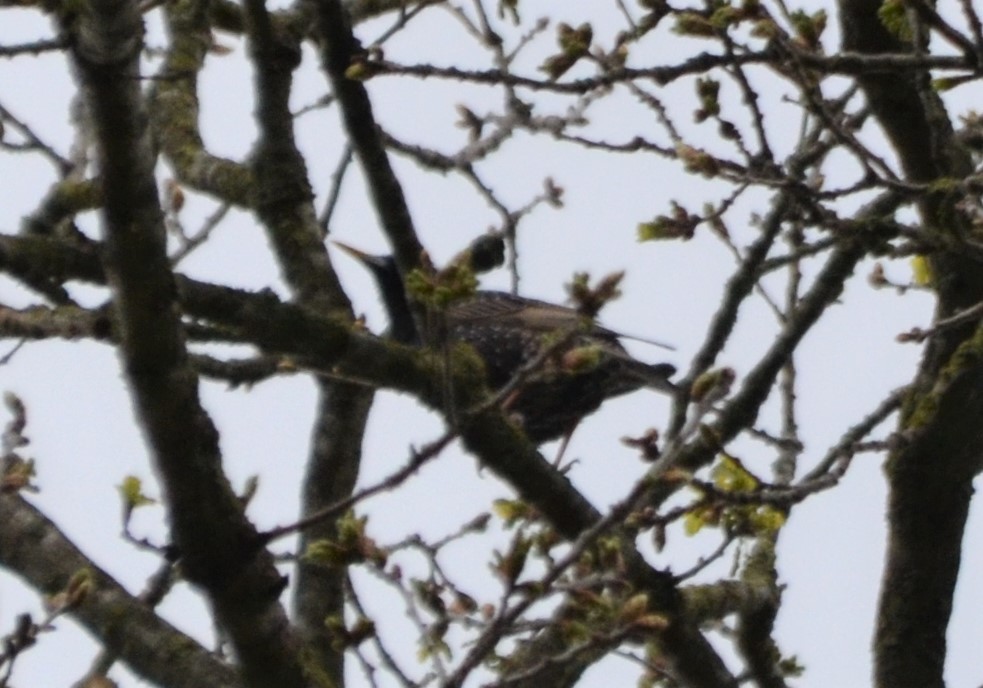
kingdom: Animalia
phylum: Chordata
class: Aves
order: Passeriformes
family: Sturnidae
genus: Sturnus
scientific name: Sturnus vulgaris
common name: Common starling
